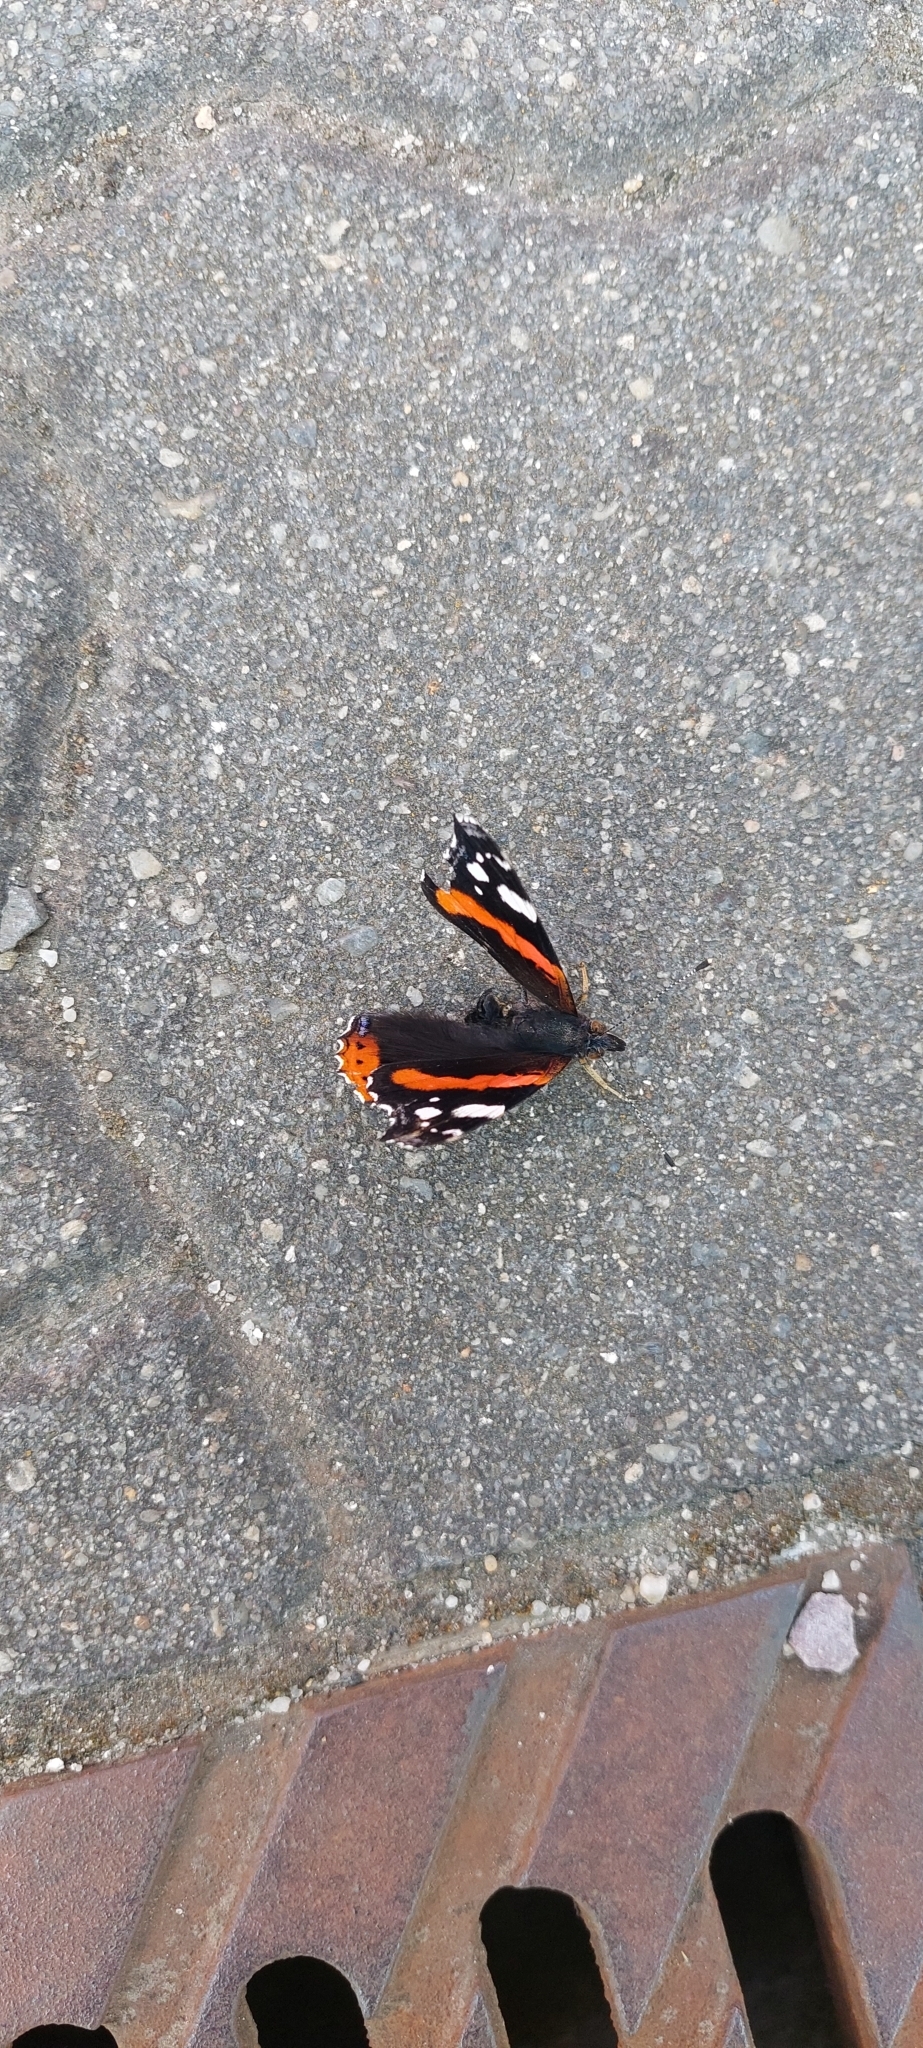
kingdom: Animalia
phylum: Arthropoda
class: Insecta
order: Lepidoptera
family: Nymphalidae
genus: Vanessa
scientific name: Vanessa atalanta
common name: Red admiral
